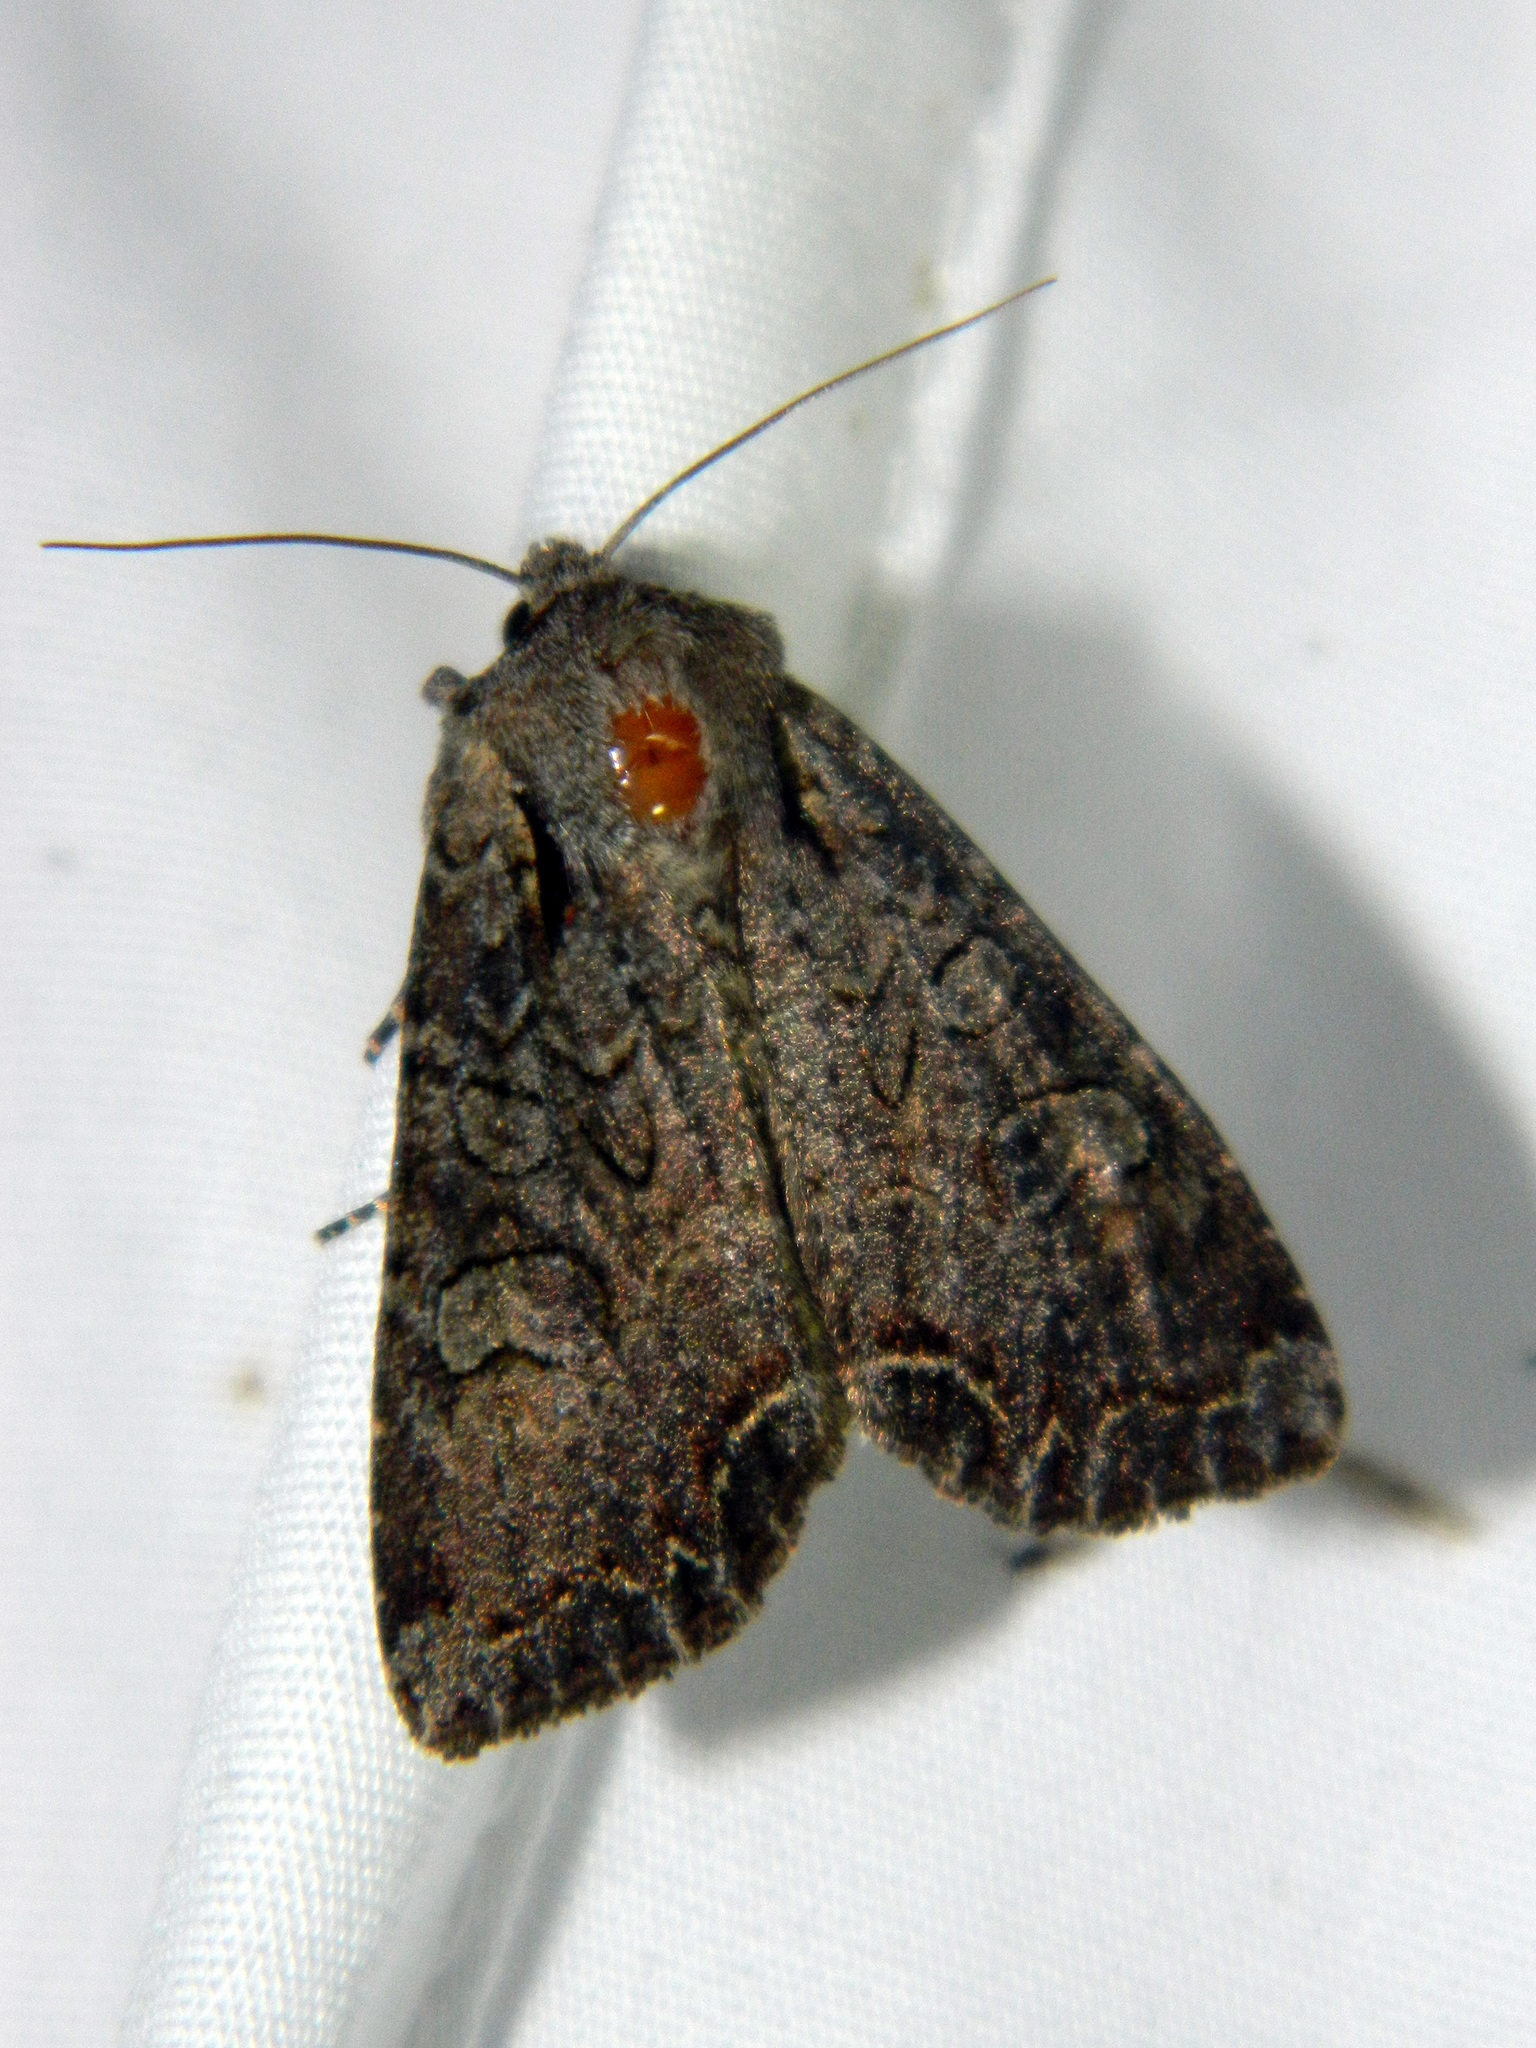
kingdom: Animalia
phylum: Arthropoda
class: Insecta
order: Lepidoptera
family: Noctuidae
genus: Lacanobia
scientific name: Lacanobia radix
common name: Garden arches moth
